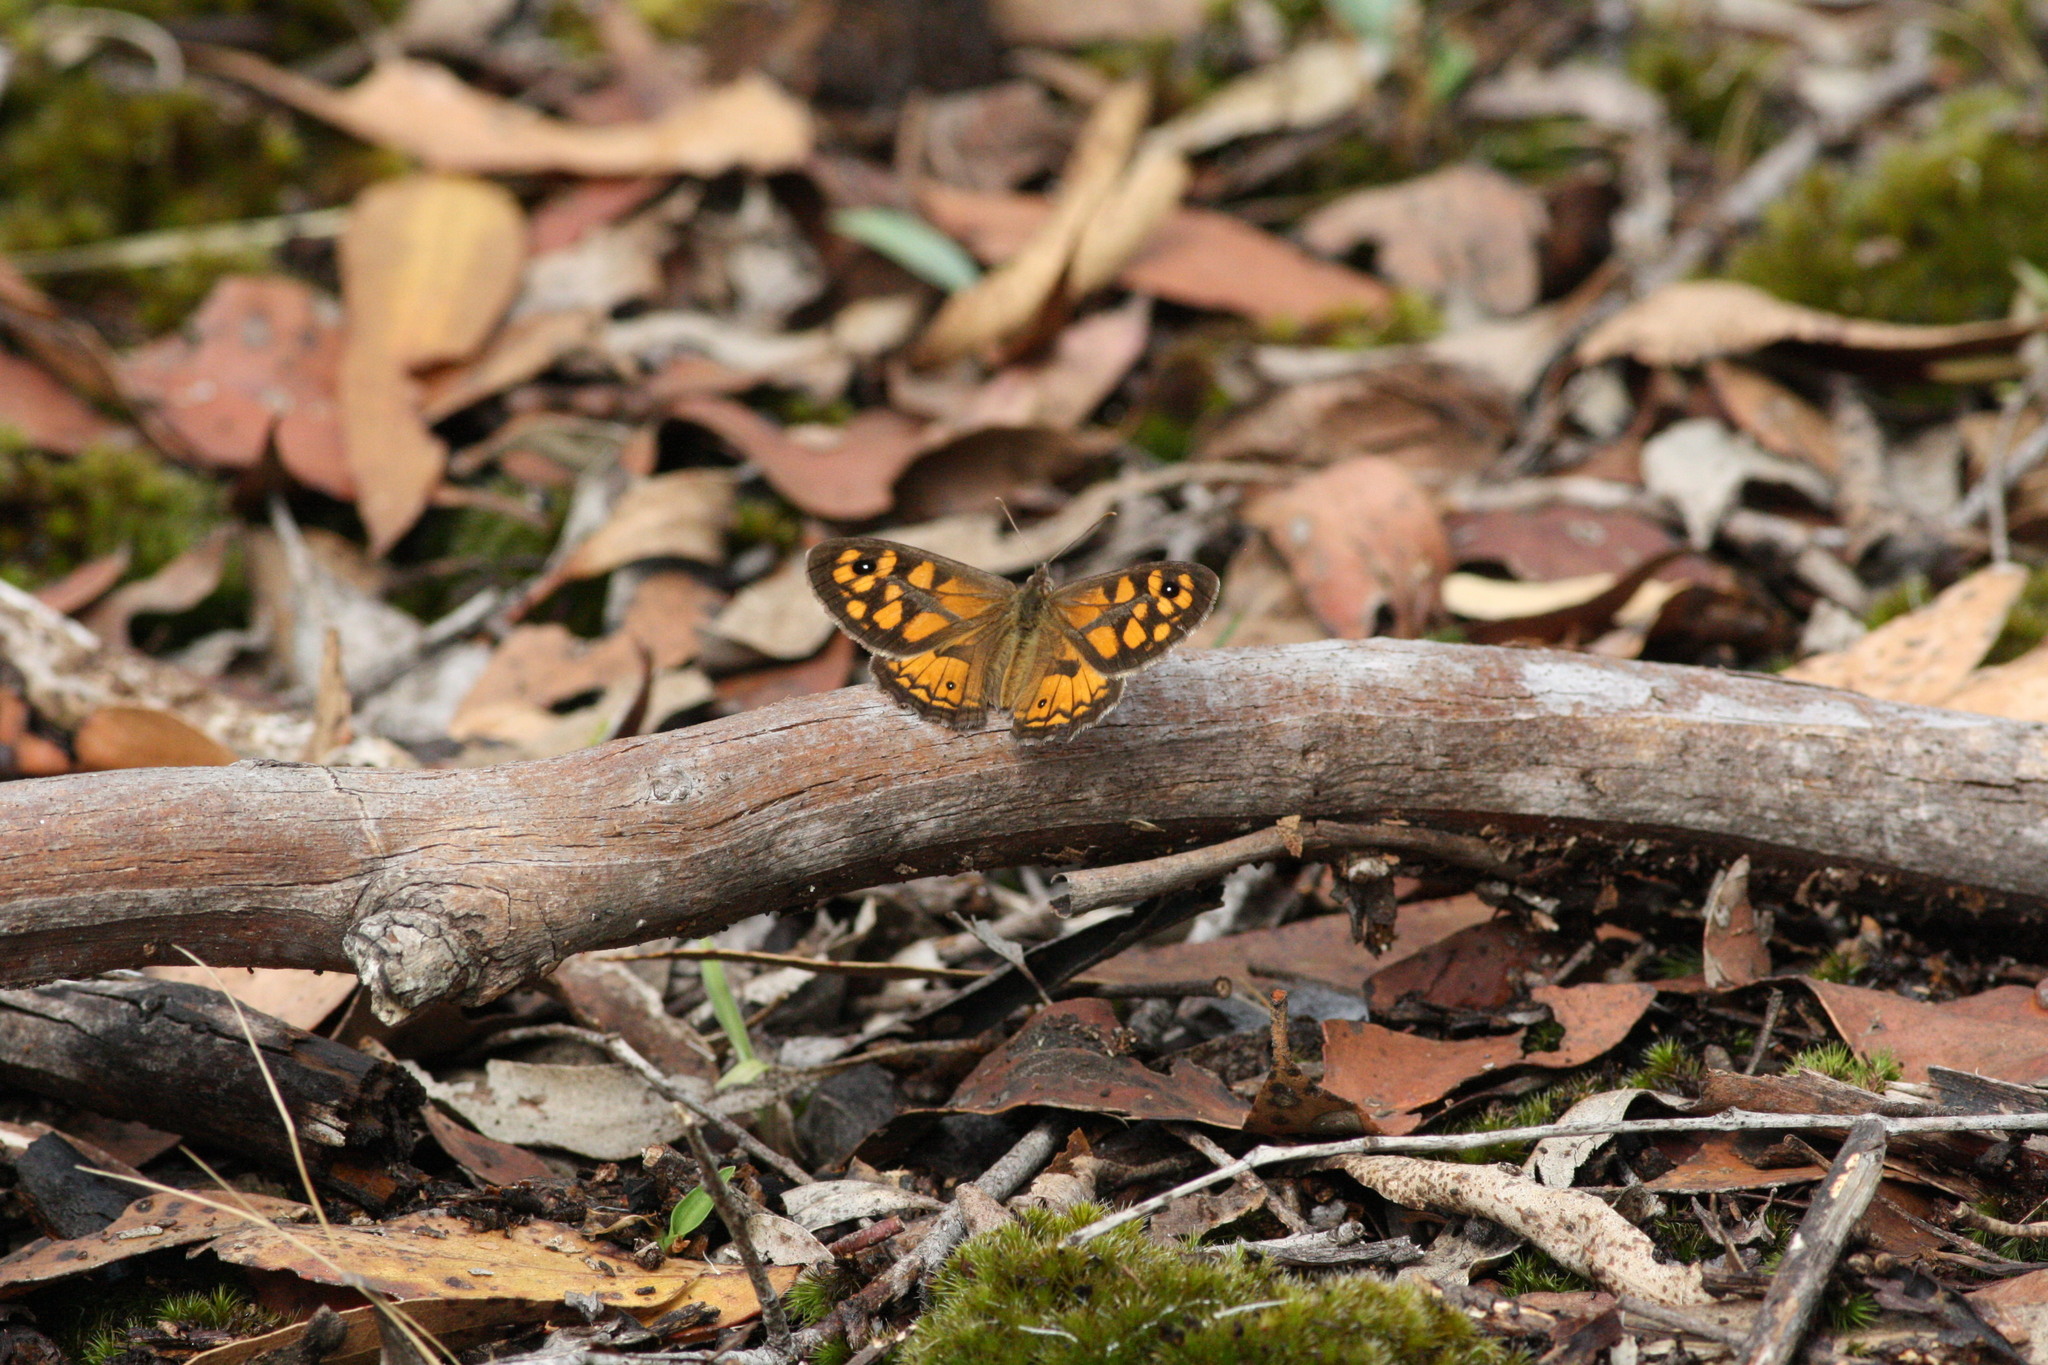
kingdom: Animalia
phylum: Arthropoda
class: Insecta
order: Lepidoptera
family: Nymphalidae
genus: Geitoneura
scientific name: Geitoneura klugii
